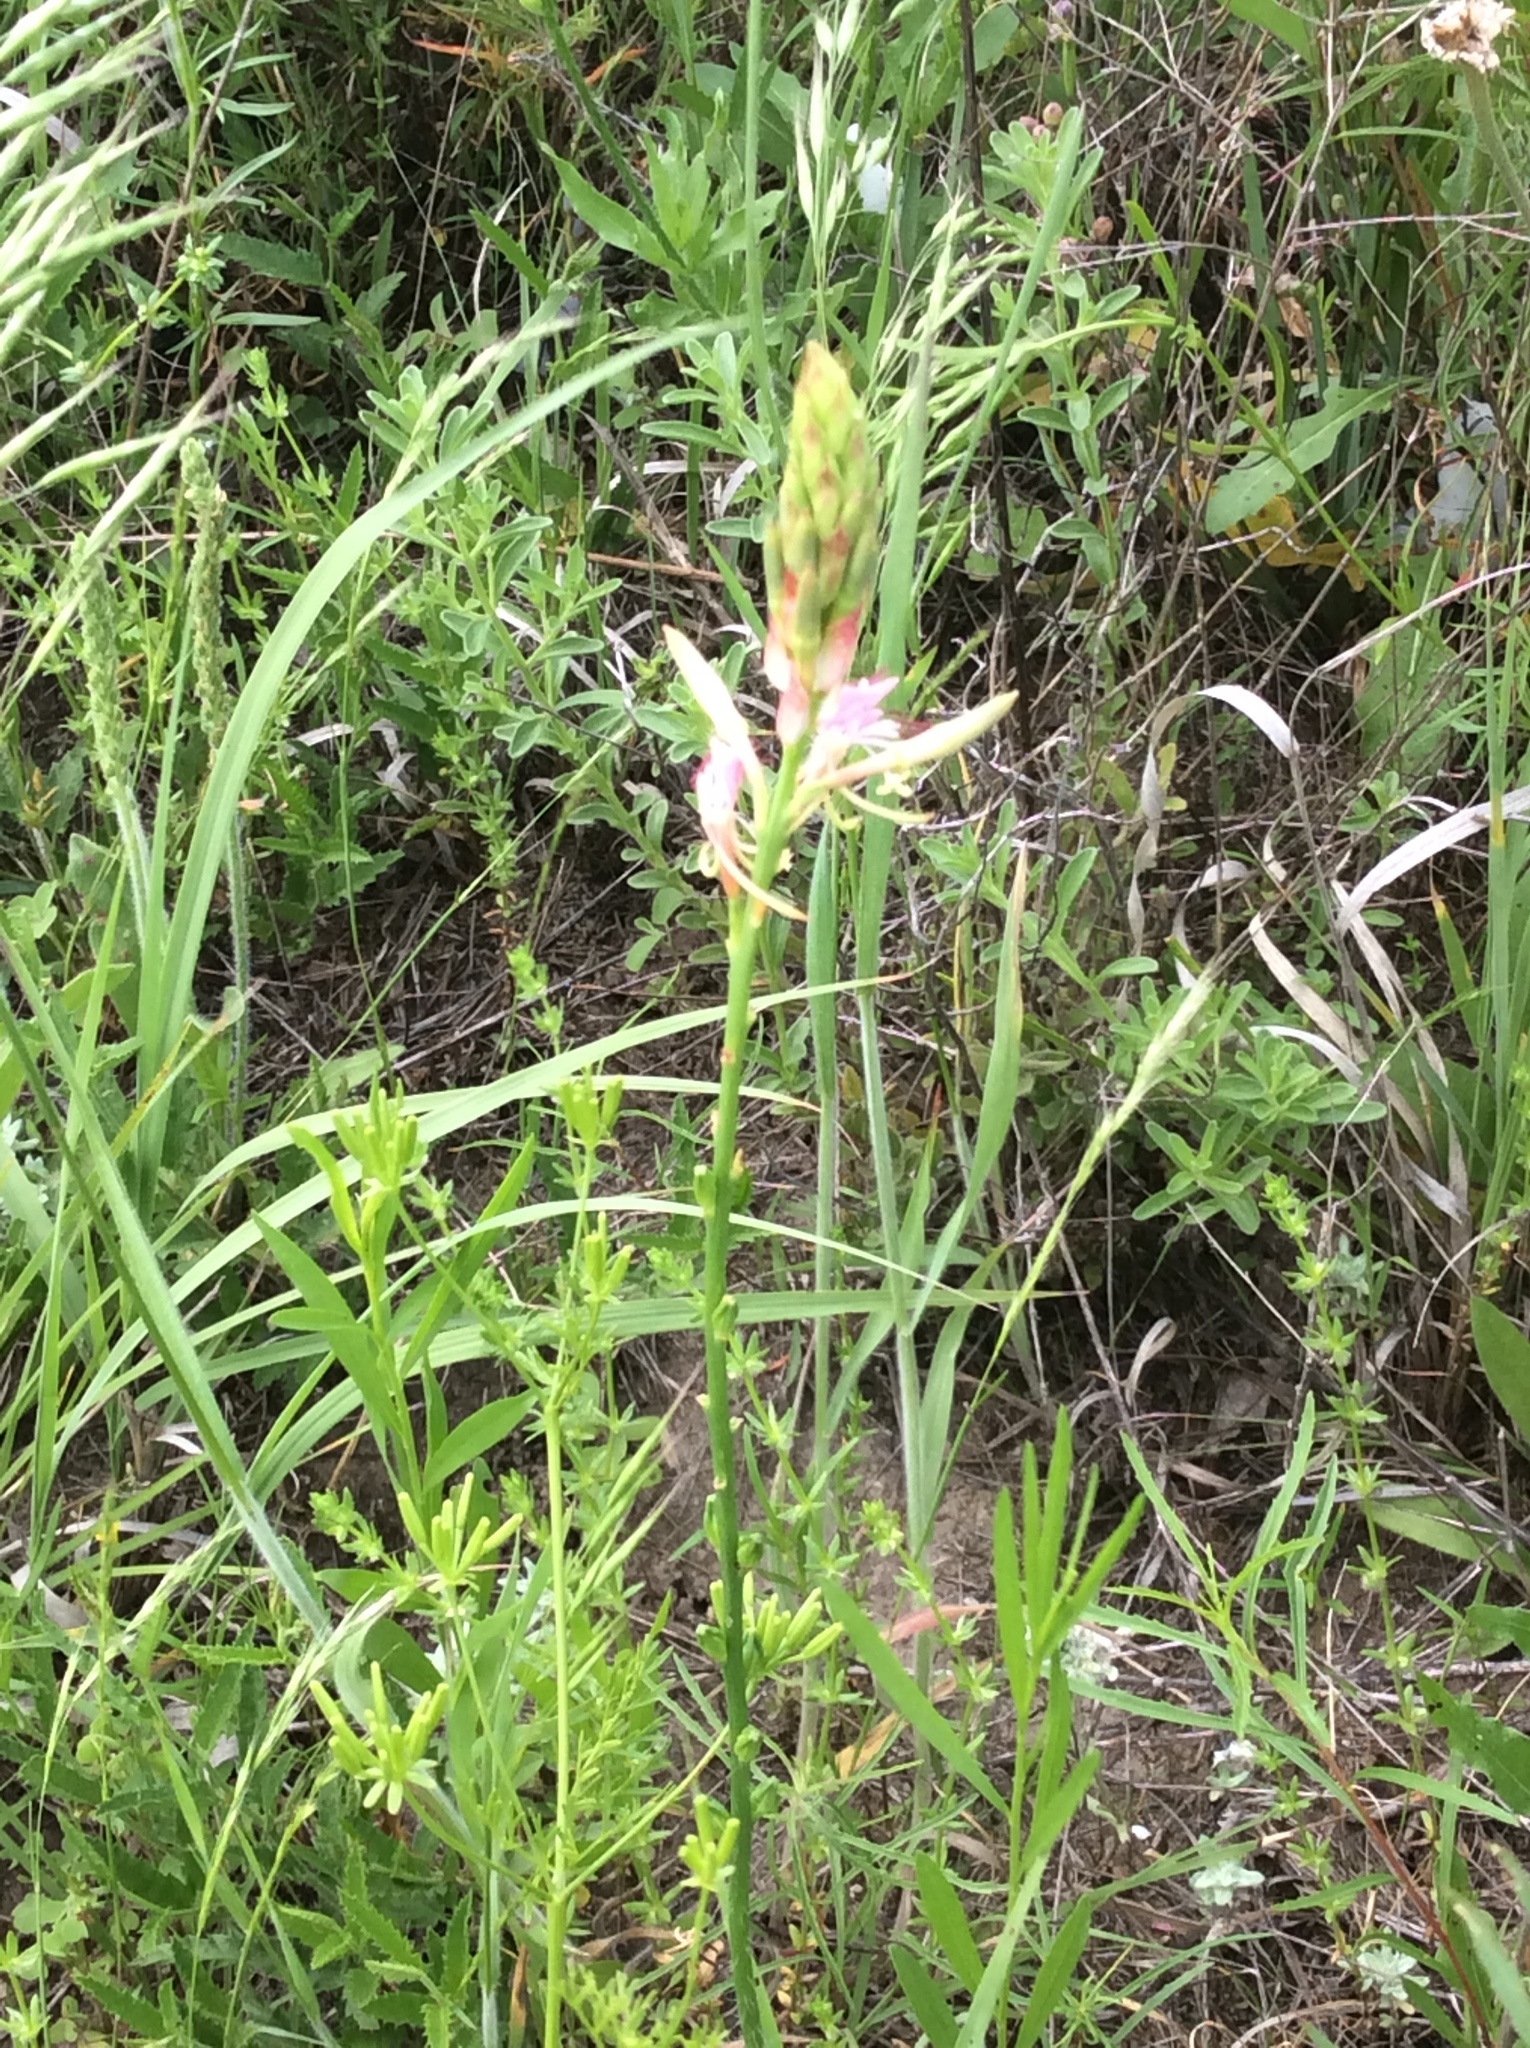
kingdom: Plantae
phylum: Tracheophyta
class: Magnoliopsida
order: Myrtales
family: Onagraceae
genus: Oenothera
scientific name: Oenothera suffulta
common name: Kisses
